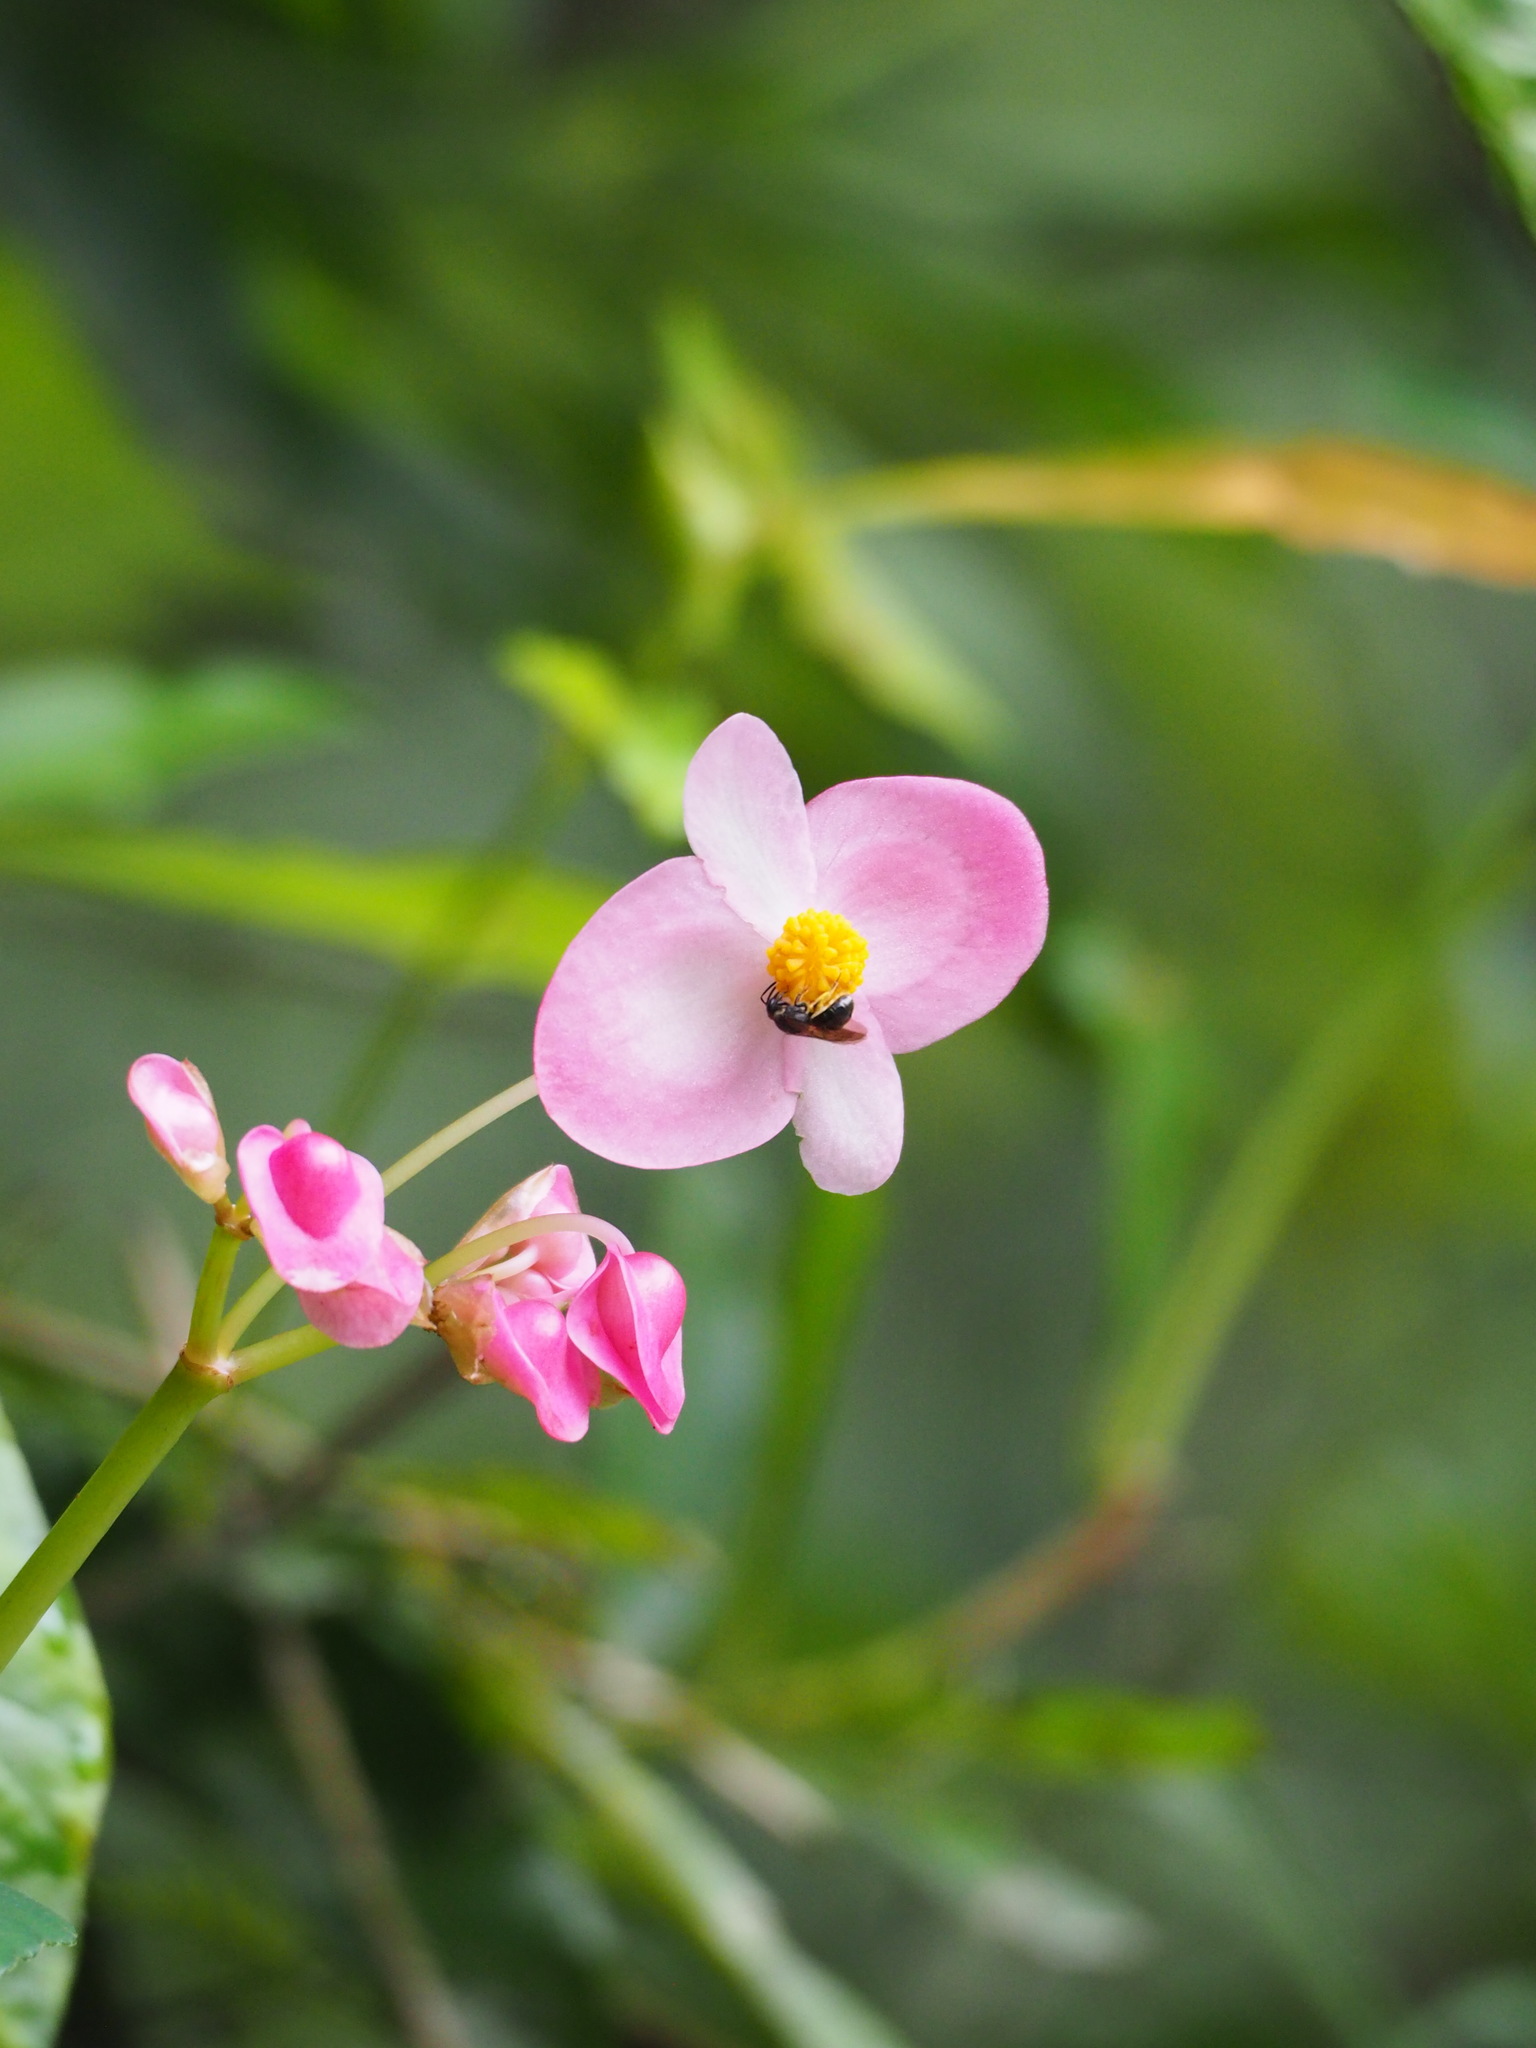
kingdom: Plantae
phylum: Tracheophyta
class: Magnoliopsida
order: Cucurbitales
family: Begoniaceae
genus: Begonia
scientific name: Begonia formosana
